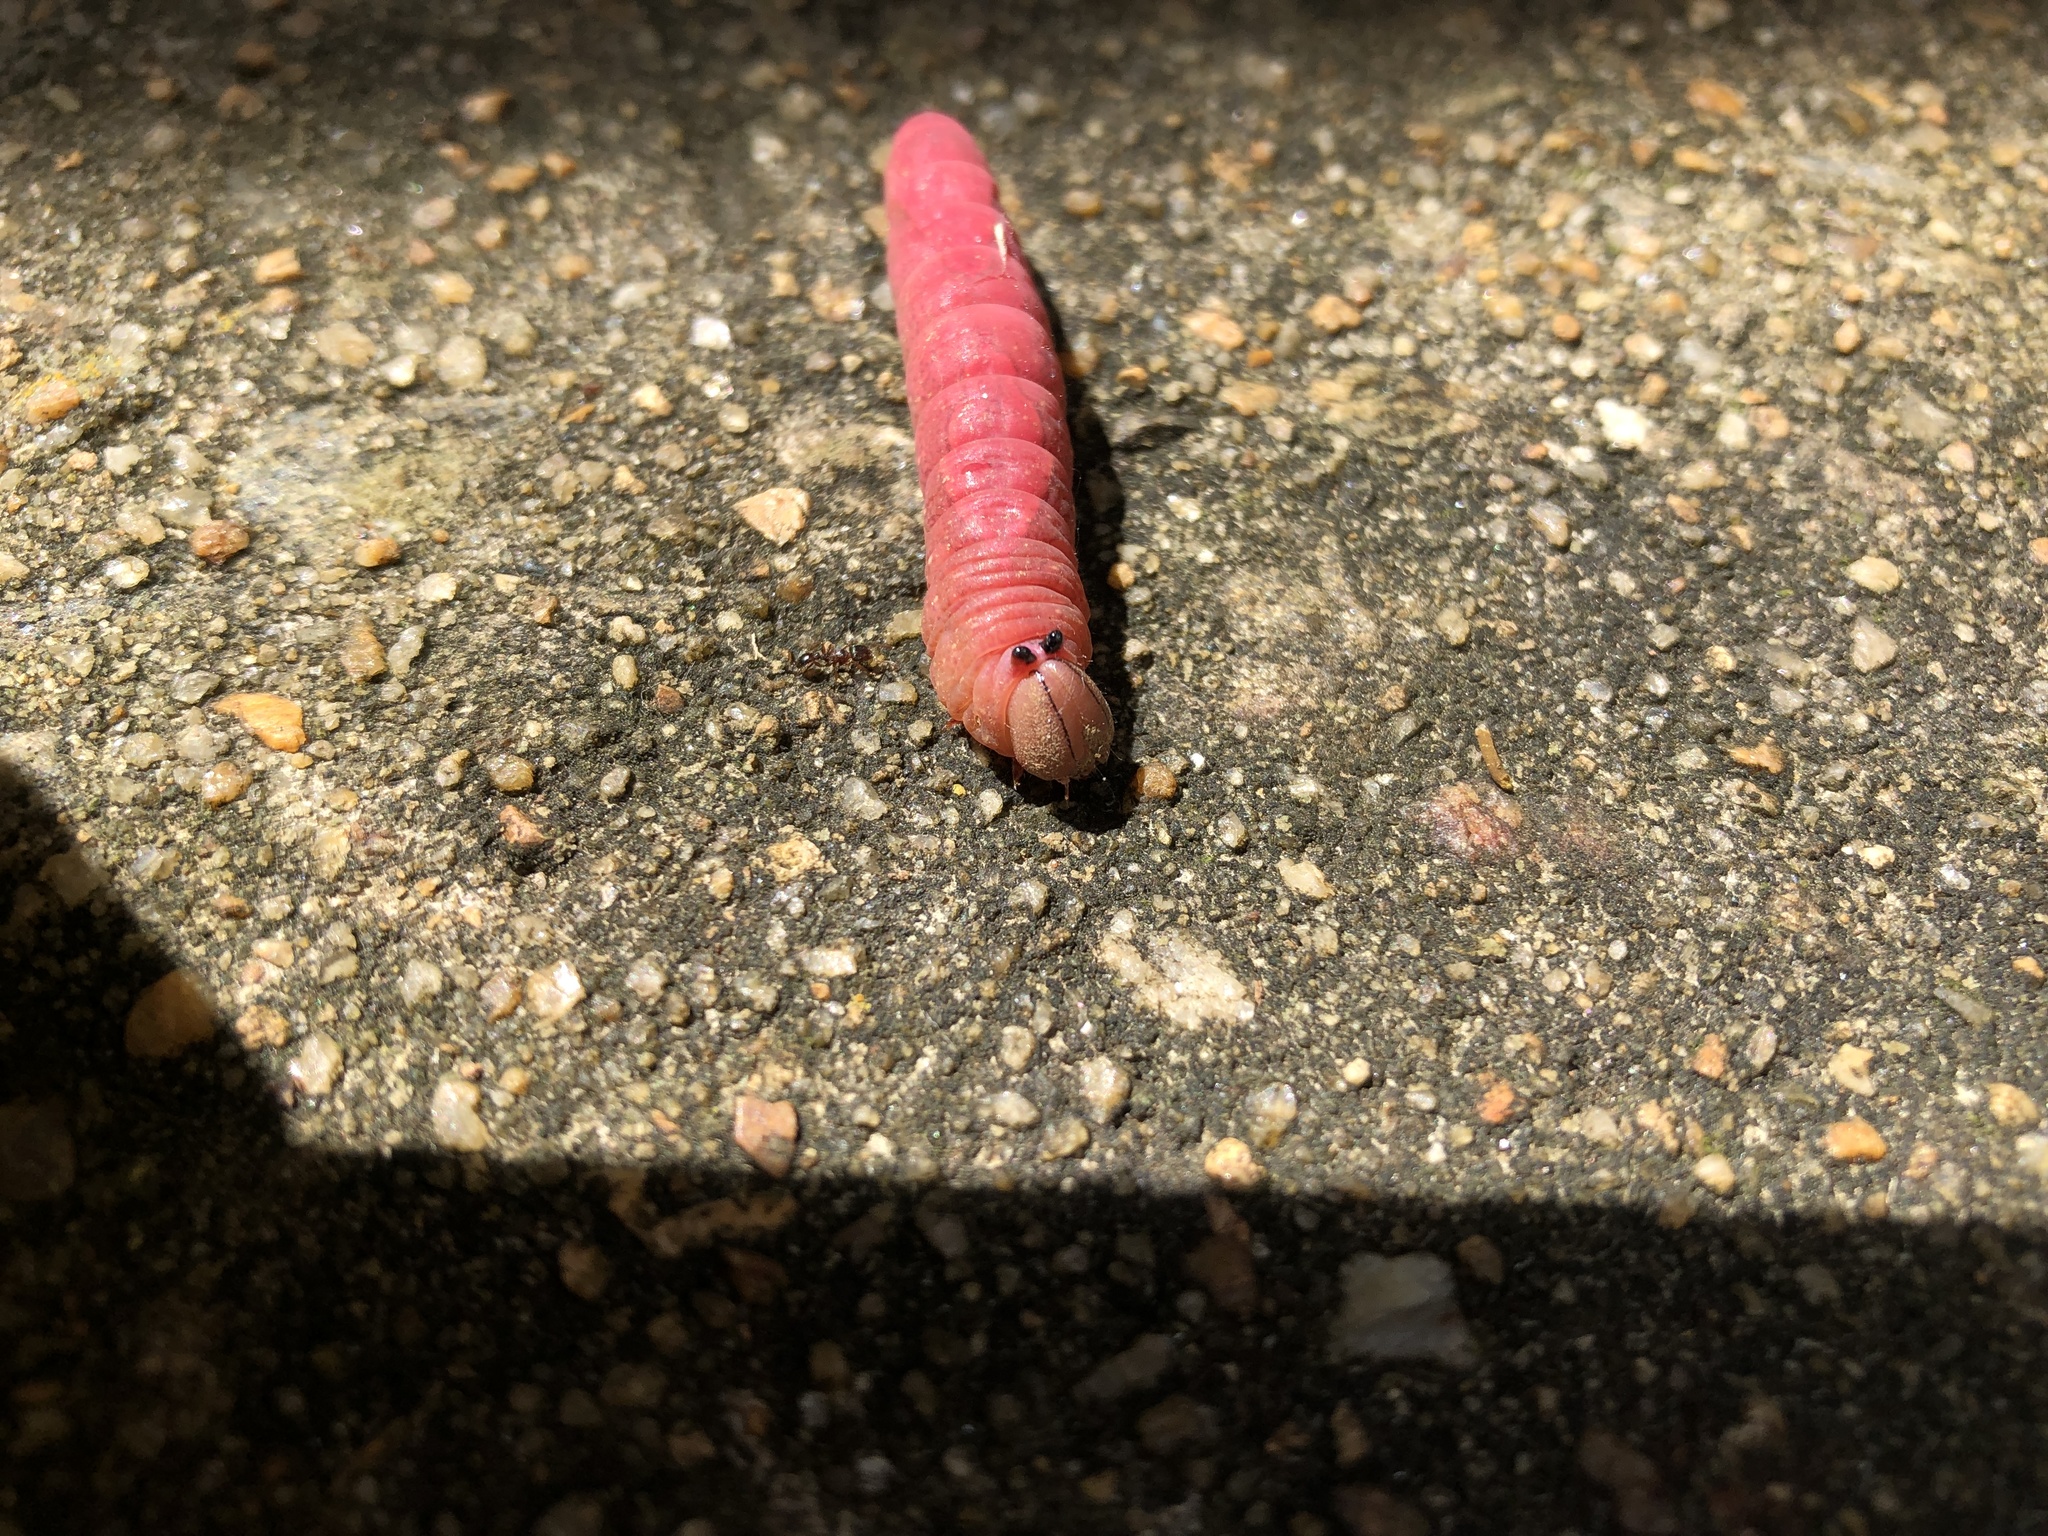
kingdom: Animalia
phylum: Arthropoda
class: Insecta
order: Lepidoptera
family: Notodontidae
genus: Heterocampa
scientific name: Heterocampa
